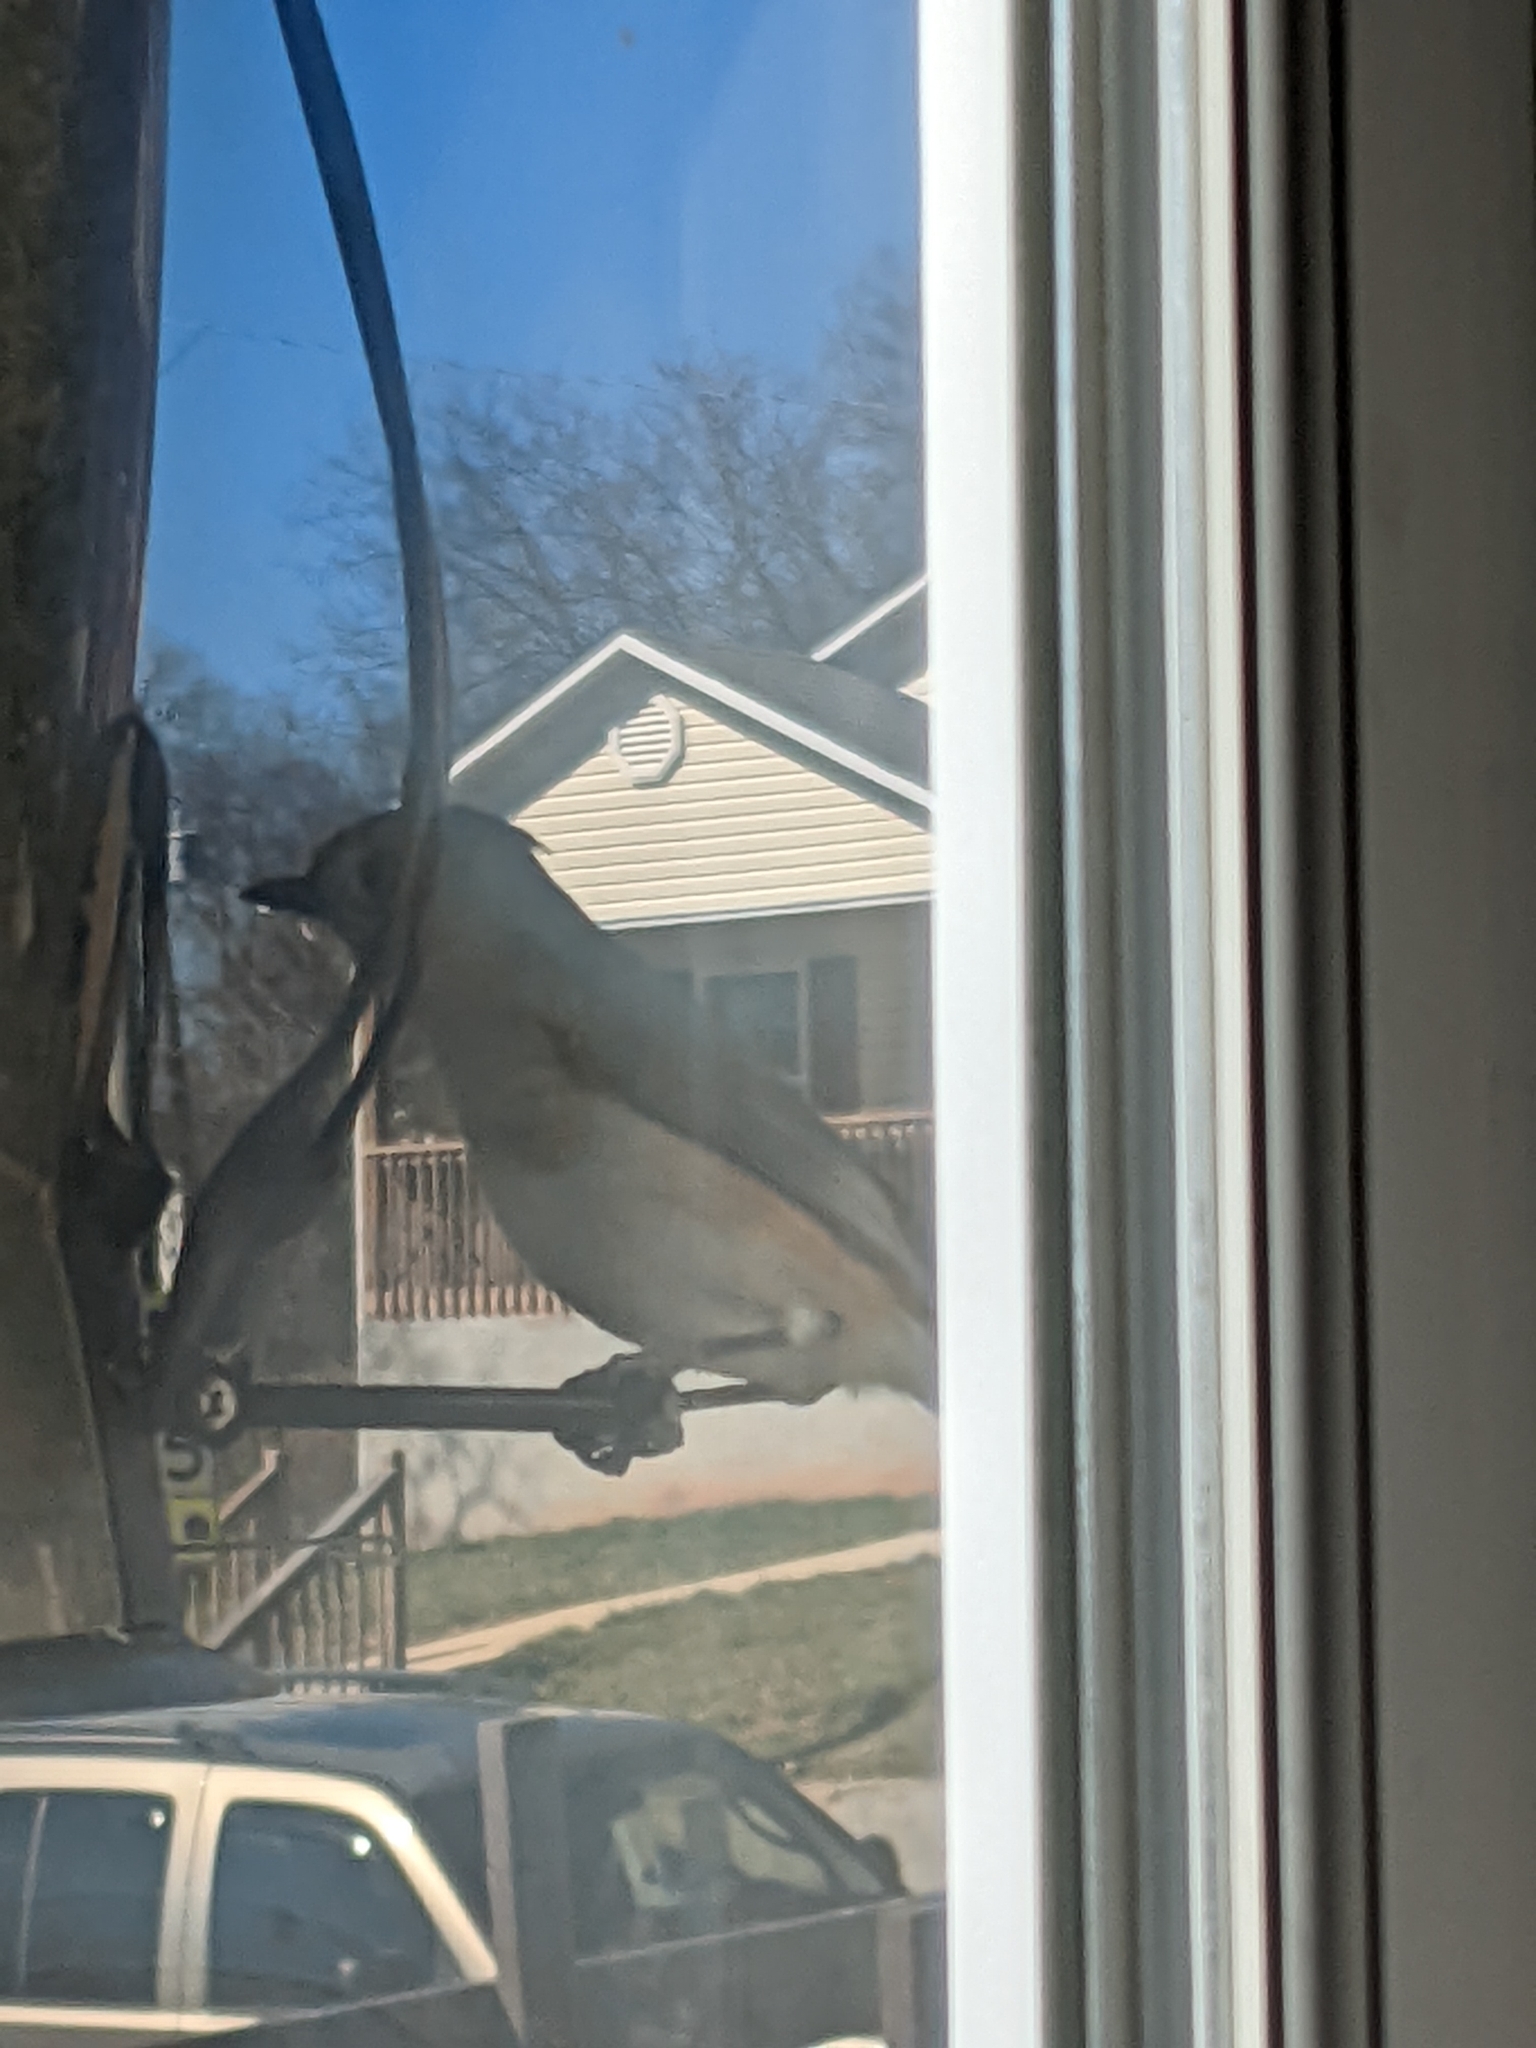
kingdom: Animalia
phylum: Chordata
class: Aves
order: Passeriformes
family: Paridae
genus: Baeolophus
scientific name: Baeolophus bicolor
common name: Tufted titmouse
